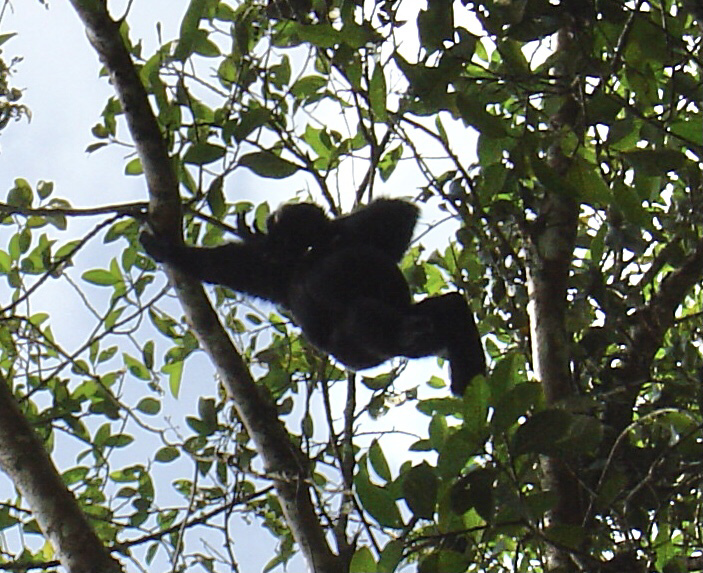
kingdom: Animalia
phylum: Chordata
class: Mammalia
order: Primates
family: Hylobatidae
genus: Symphalangus
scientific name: Symphalangus syndactylus
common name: Siamang
